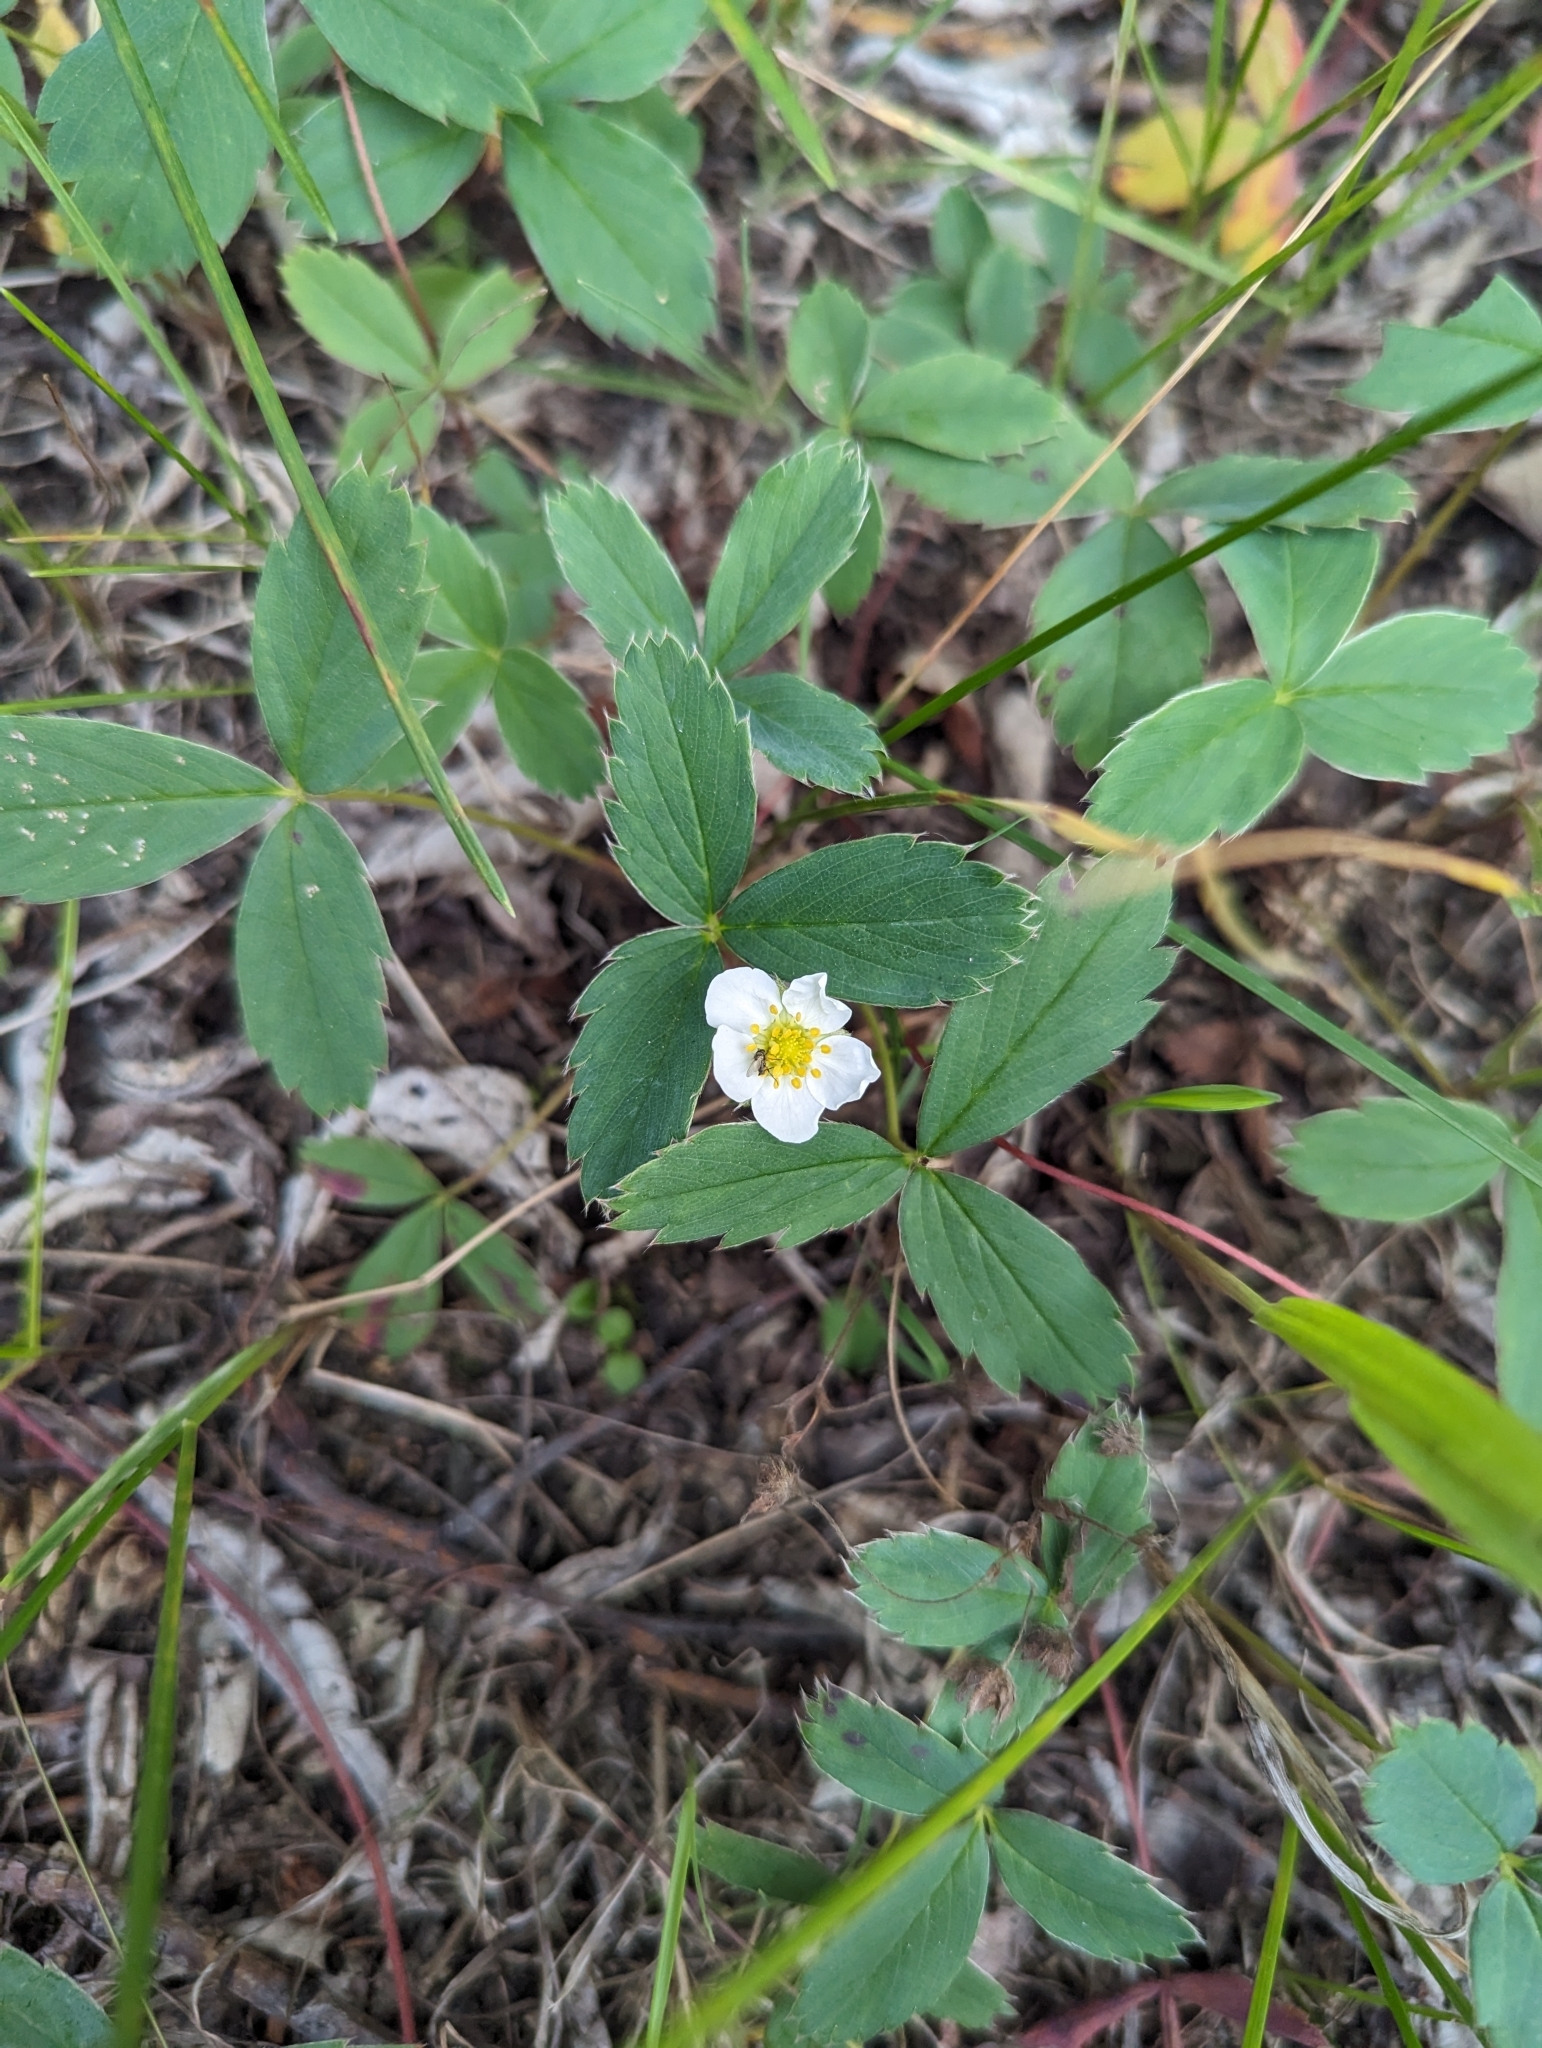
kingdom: Plantae
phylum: Tracheophyta
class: Magnoliopsida
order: Rosales
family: Rosaceae
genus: Fragaria
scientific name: Fragaria virginiana
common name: Thickleaved wild strawberry
